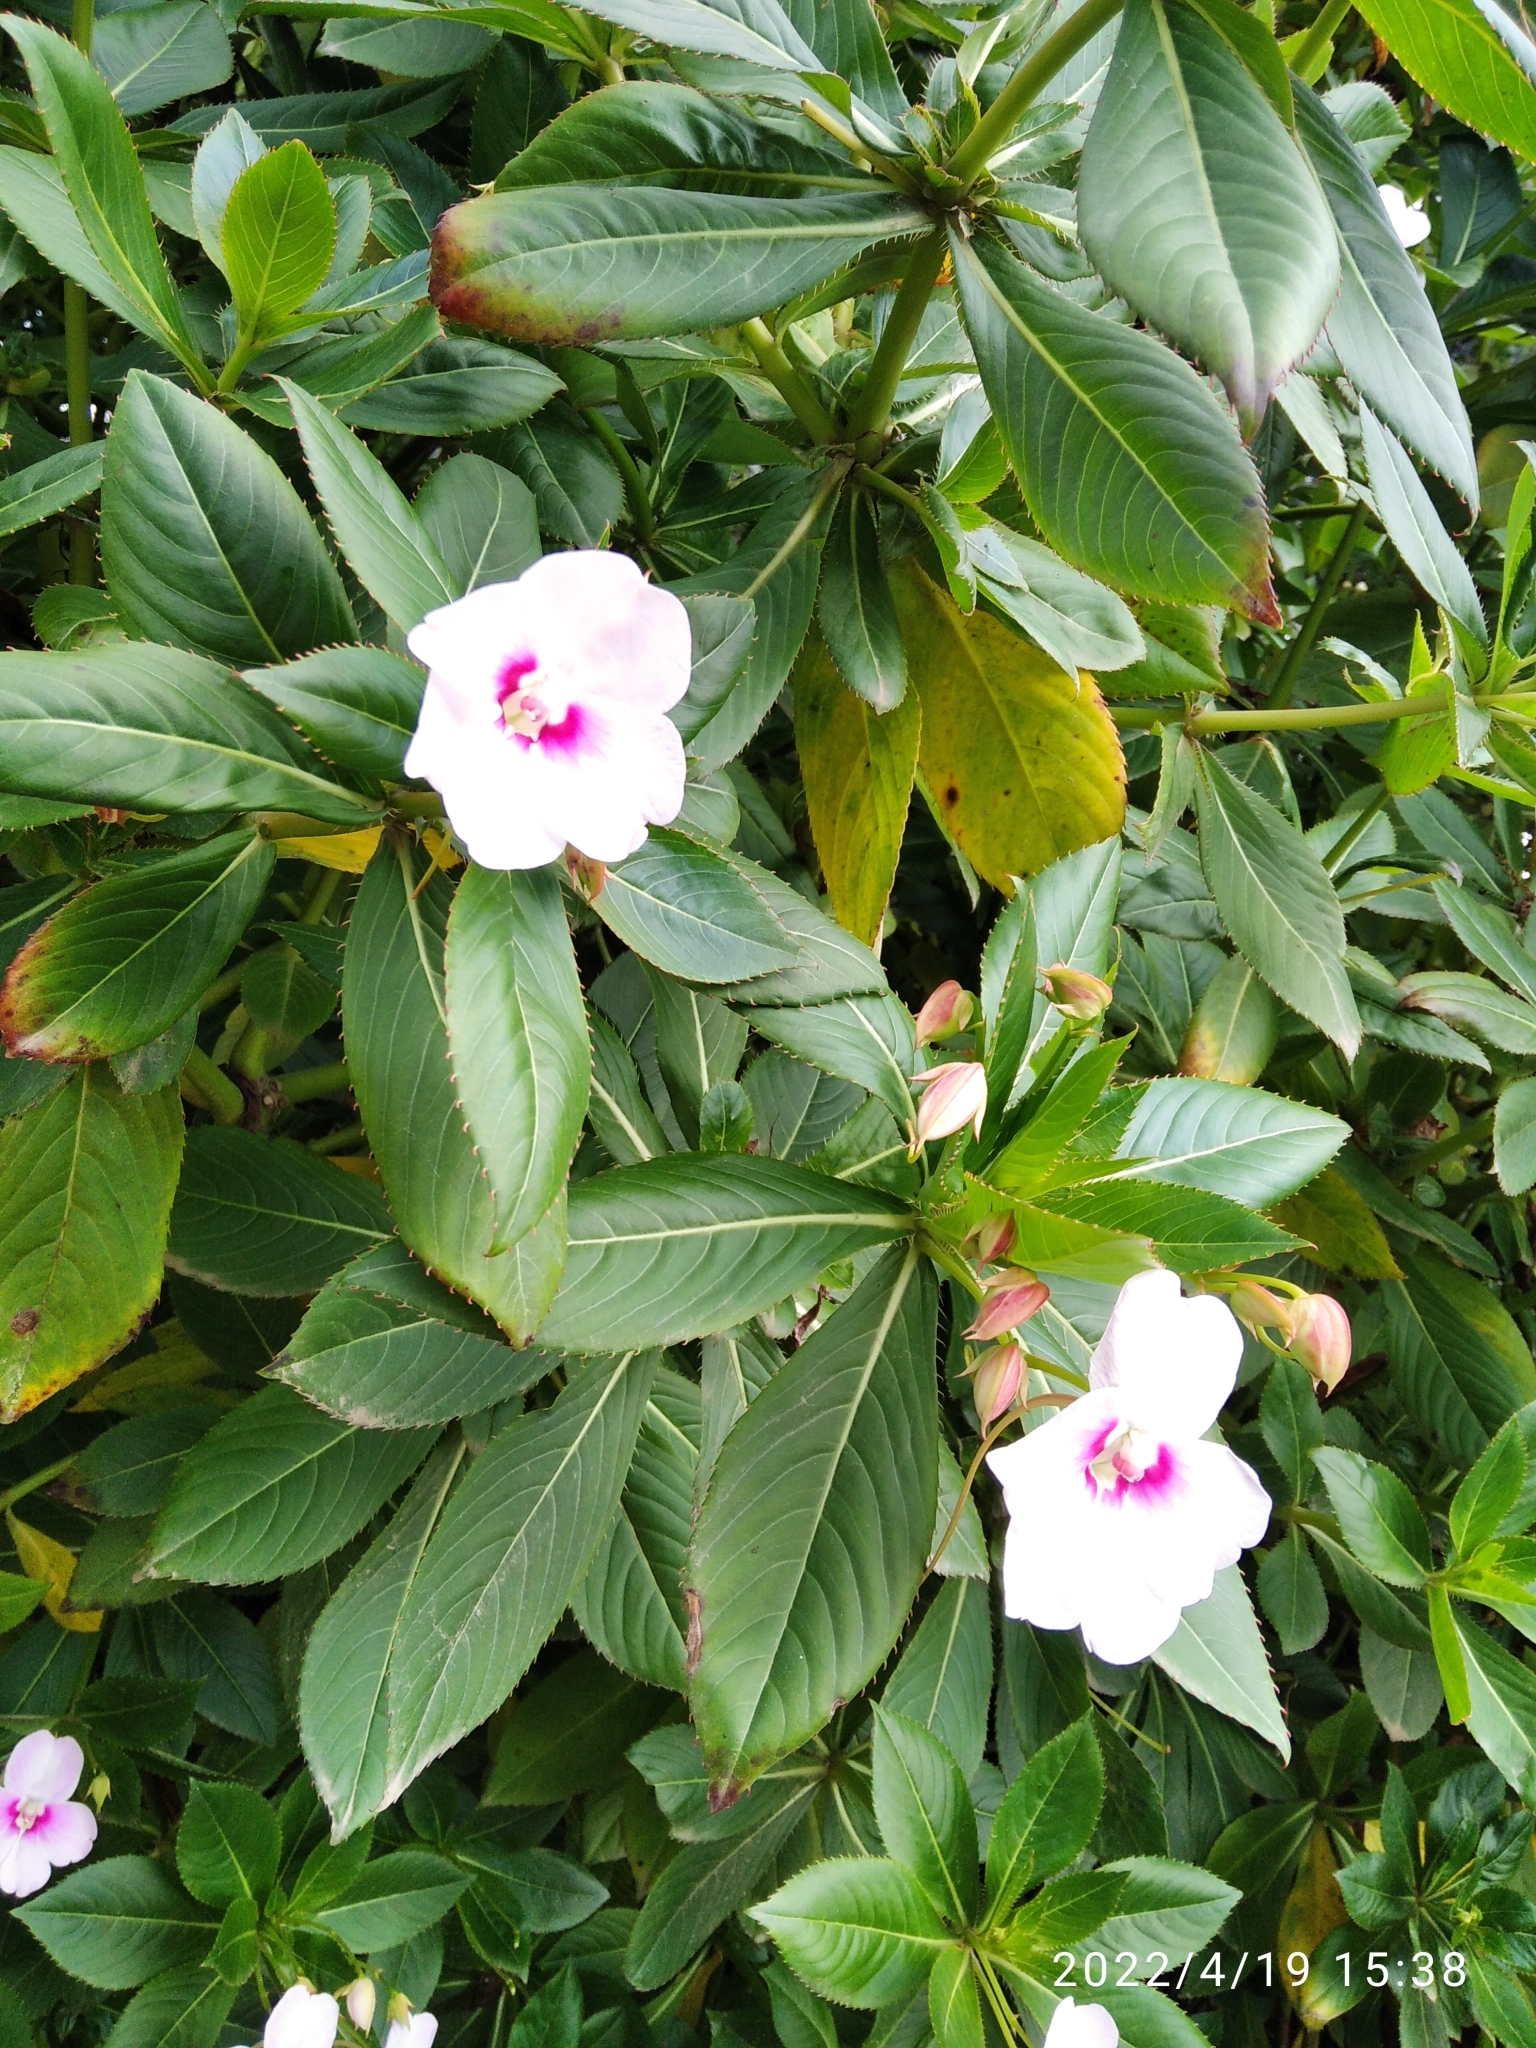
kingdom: Plantae
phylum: Tracheophyta
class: Magnoliopsida
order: Ericales
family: Balsaminaceae
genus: Impatiens
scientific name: Impatiens sodenii
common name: Oliver's touch-me-not
